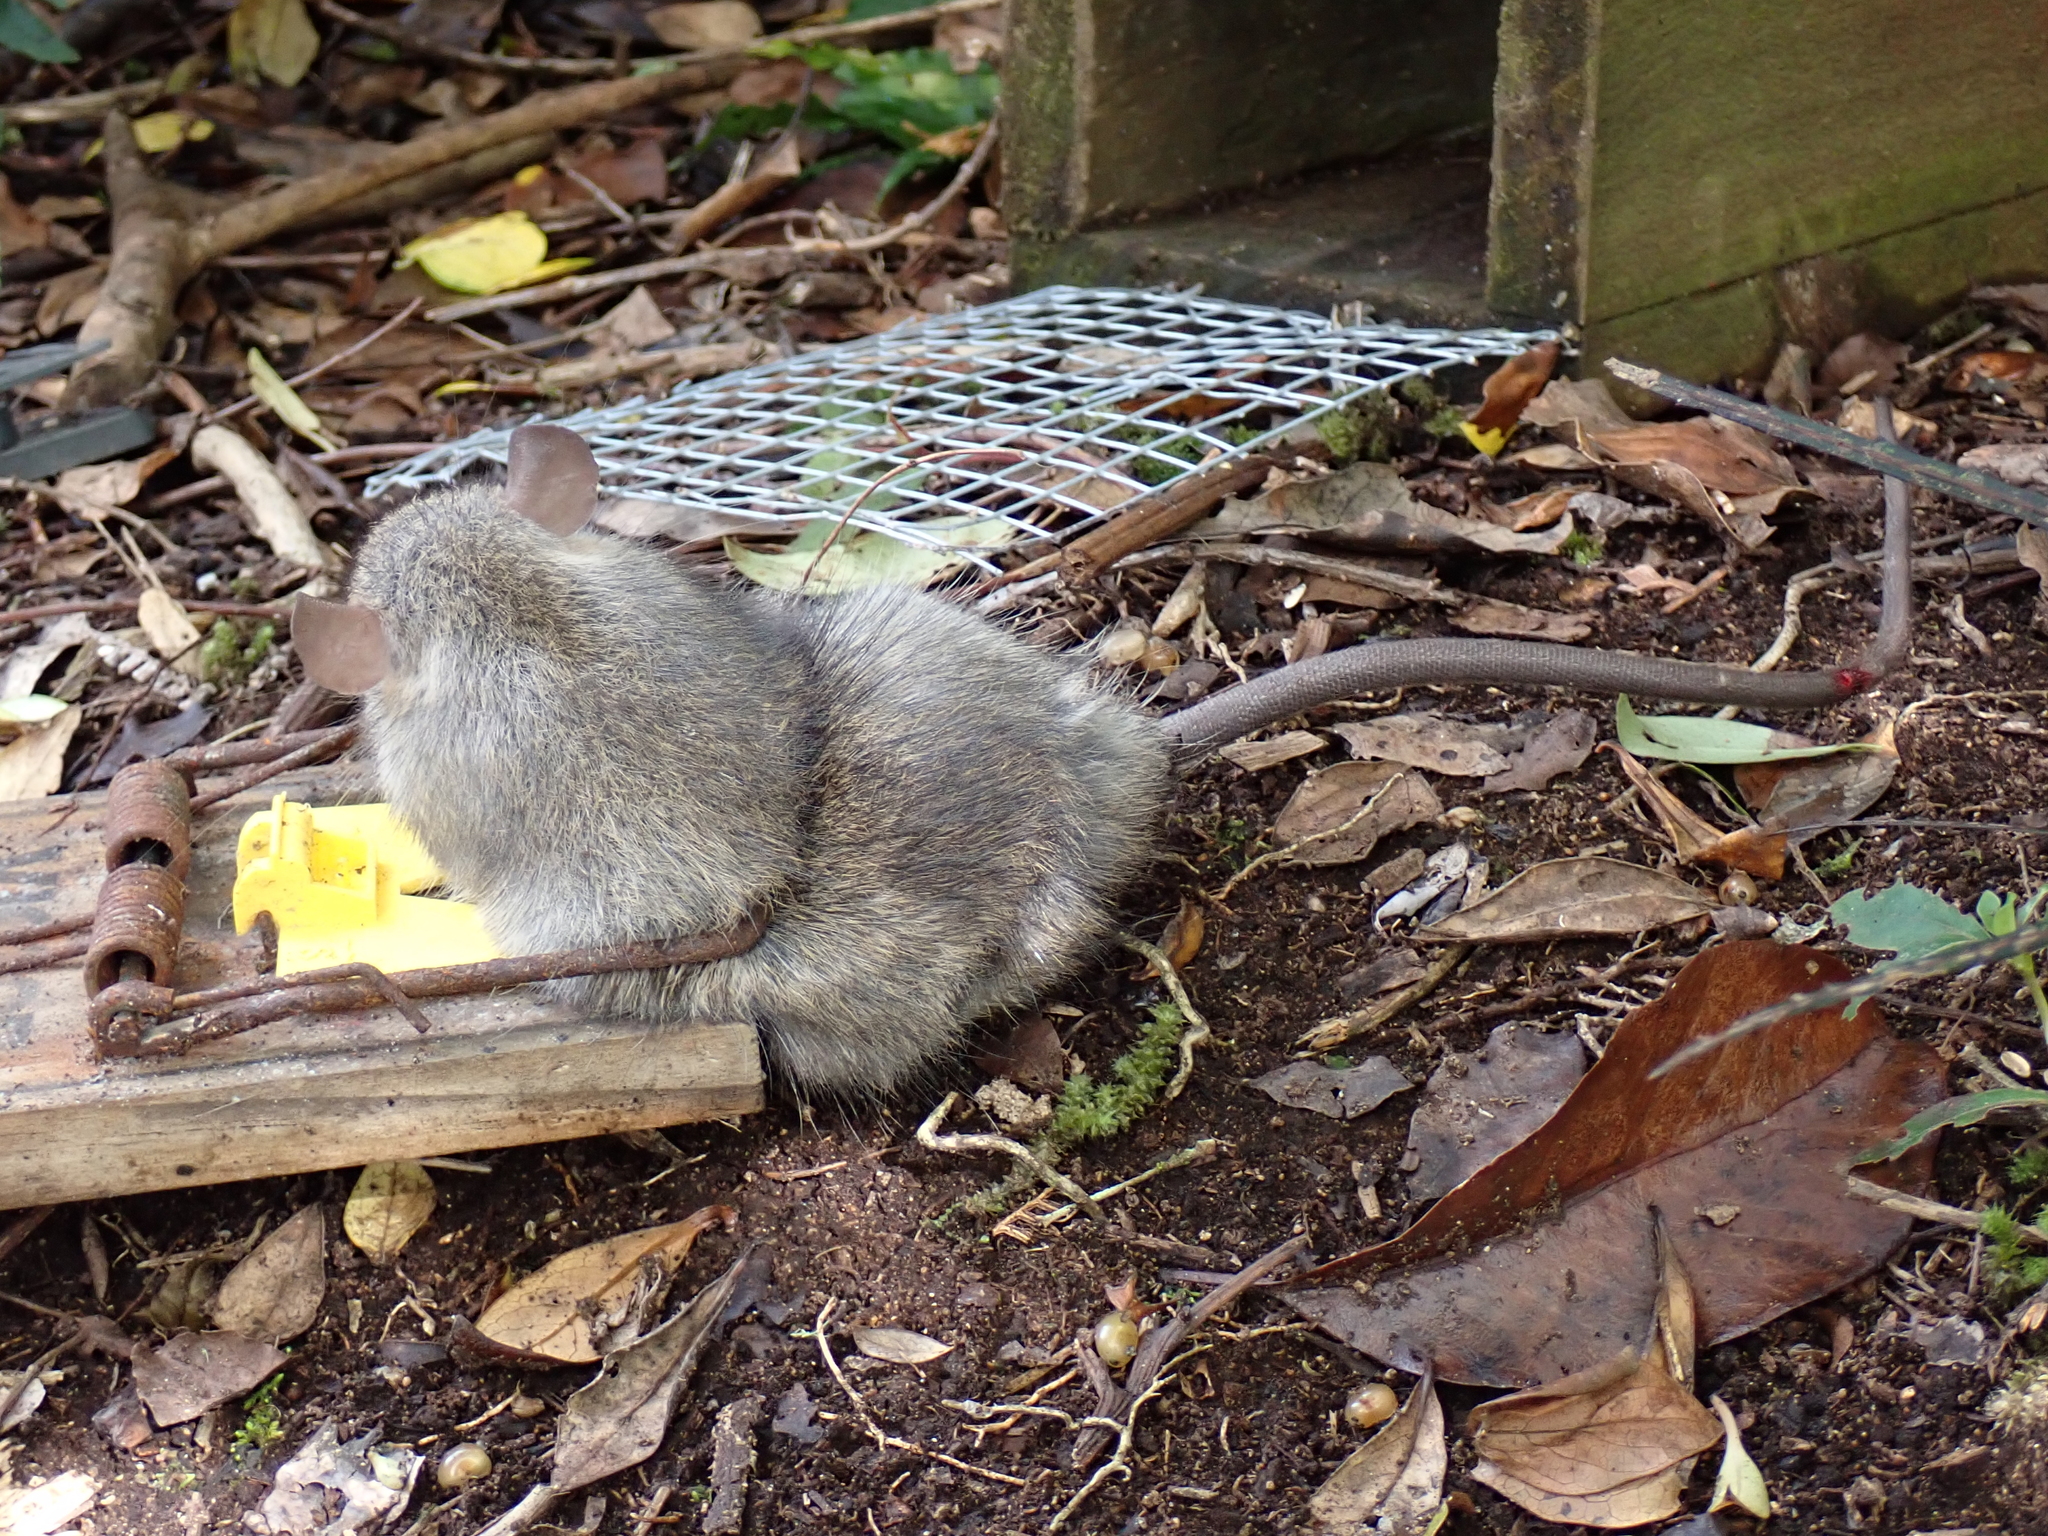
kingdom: Animalia
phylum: Chordata
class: Mammalia
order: Rodentia
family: Muridae
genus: Rattus
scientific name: Rattus rattus
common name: Black rat
